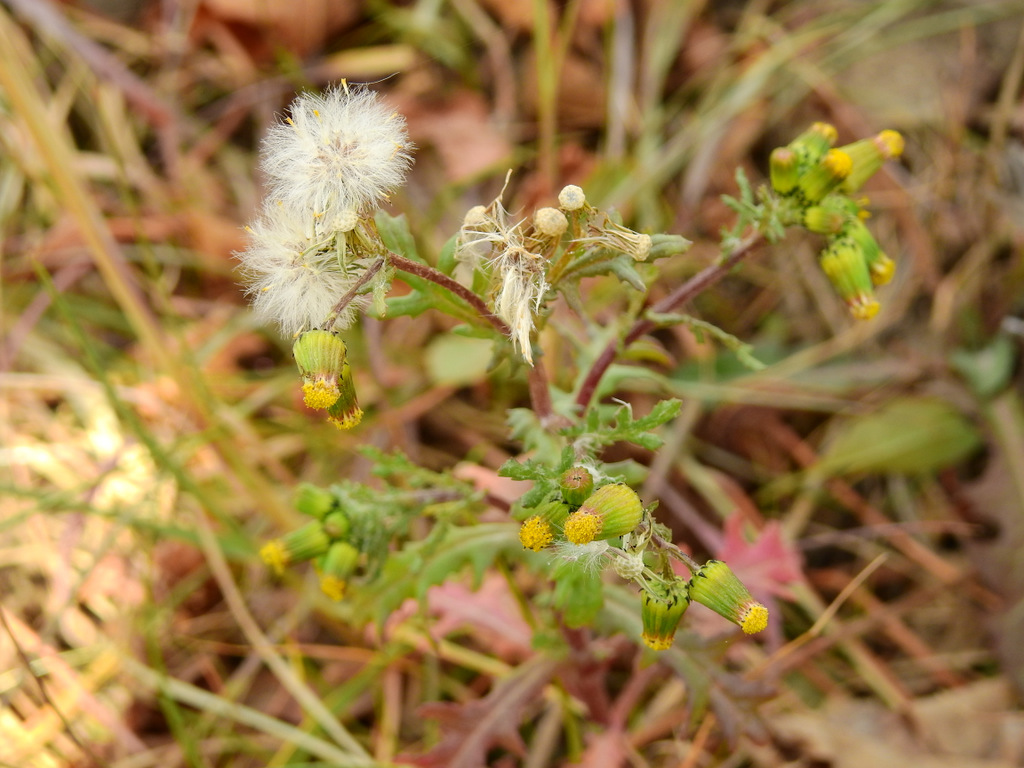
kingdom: Plantae
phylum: Tracheophyta
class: Magnoliopsida
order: Asterales
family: Asteraceae
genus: Senecio
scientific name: Senecio vulgaris
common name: Old-man-in-the-spring
